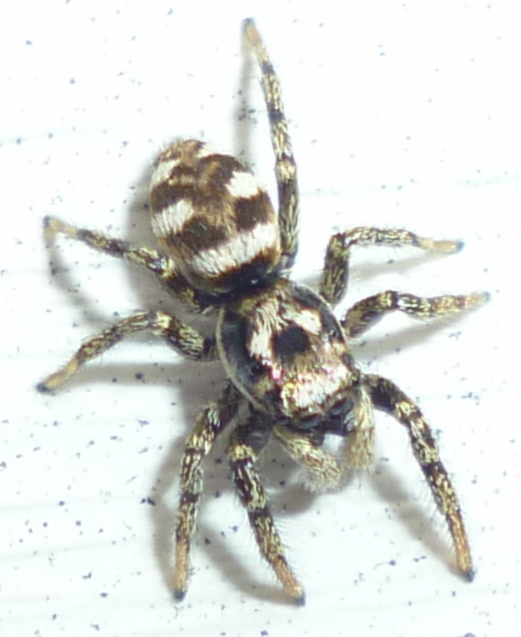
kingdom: Animalia
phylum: Arthropoda
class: Arachnida
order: Araneae
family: Salticidae
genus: Salticus
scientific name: Salticus scenicus
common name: Zebra jumper
